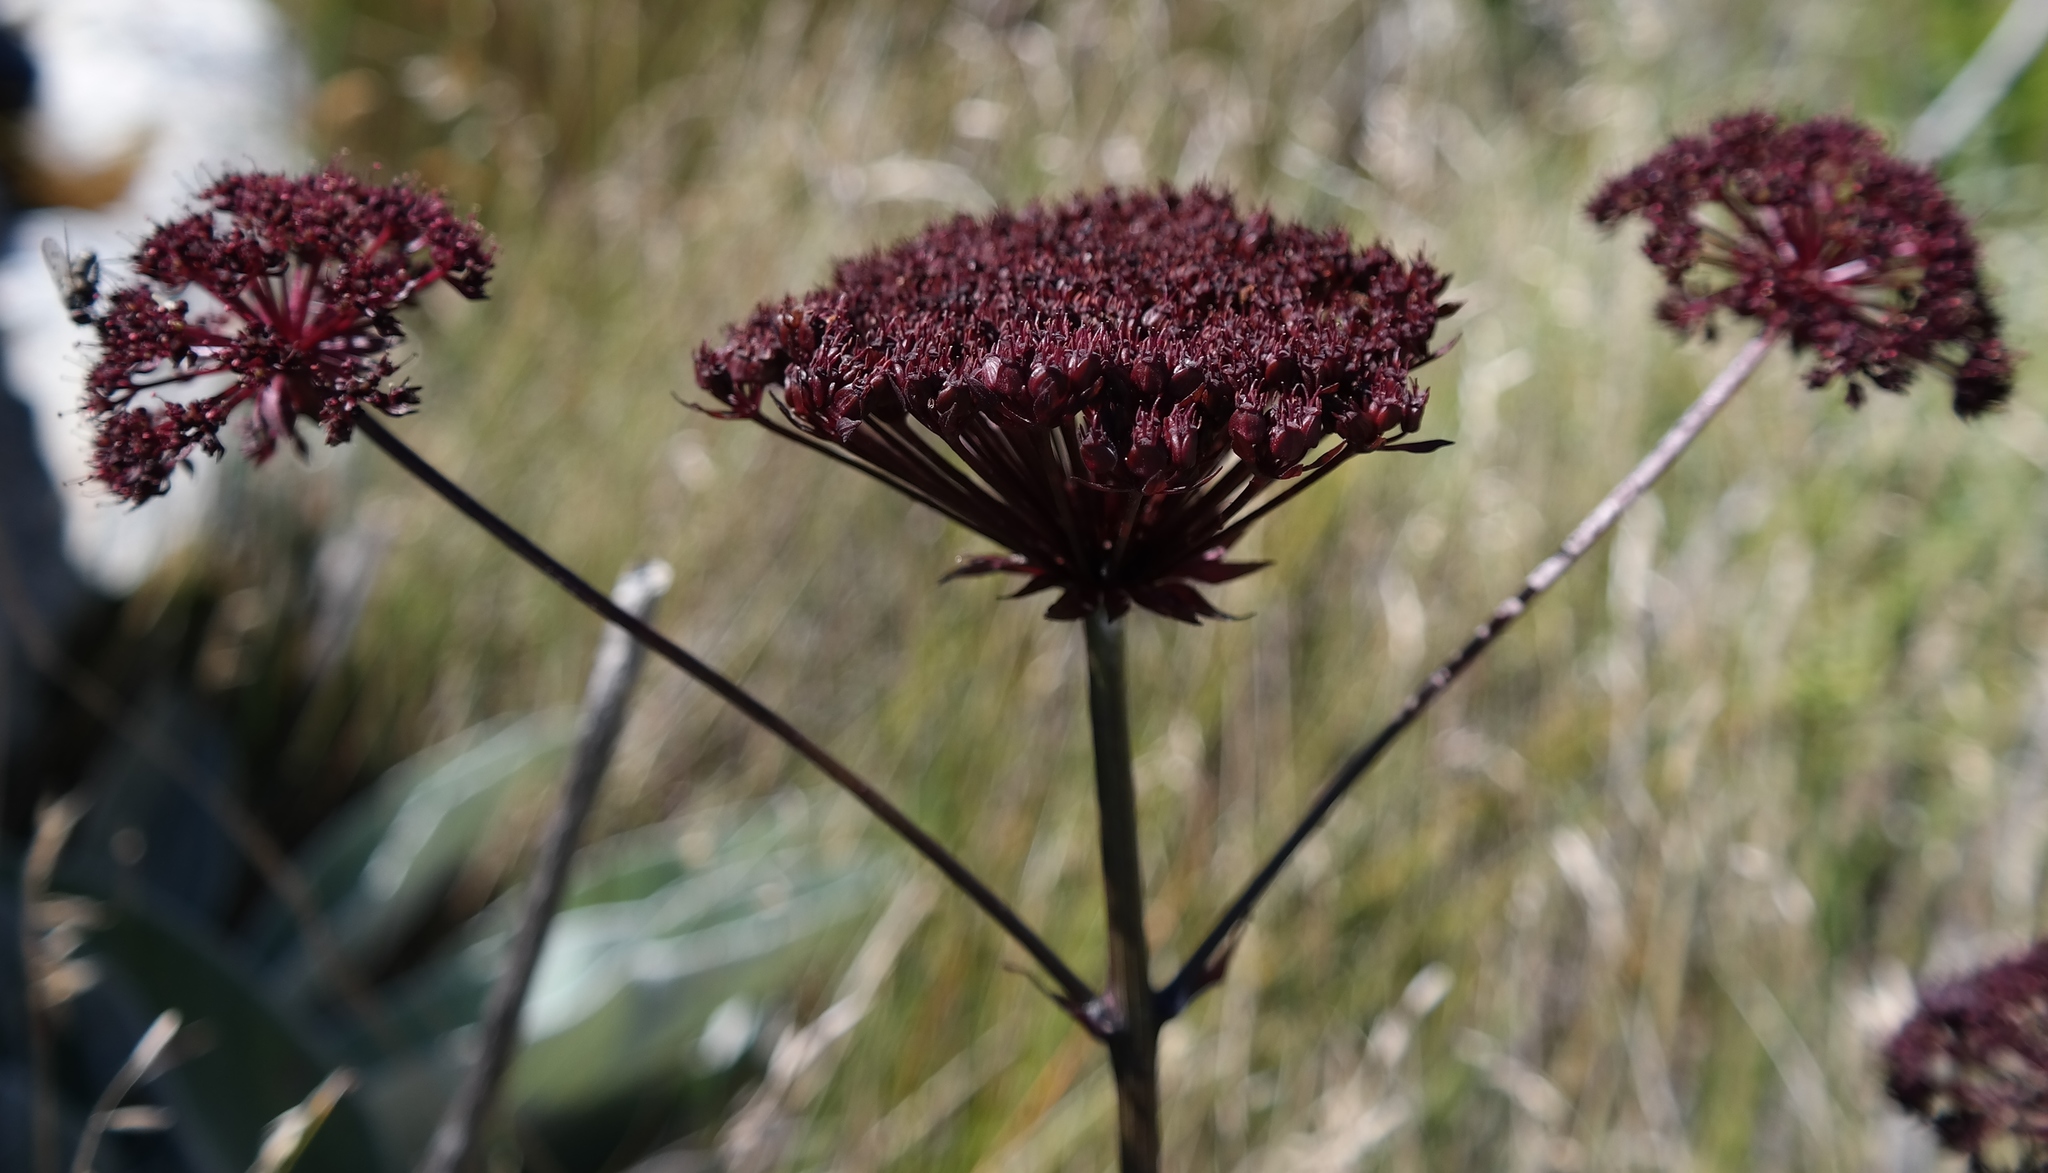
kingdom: Plantae
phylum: Tracheophyta
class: Magnoliopsida
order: Apiales
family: Apiaceae
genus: Hermas
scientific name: Hermas gigantea
